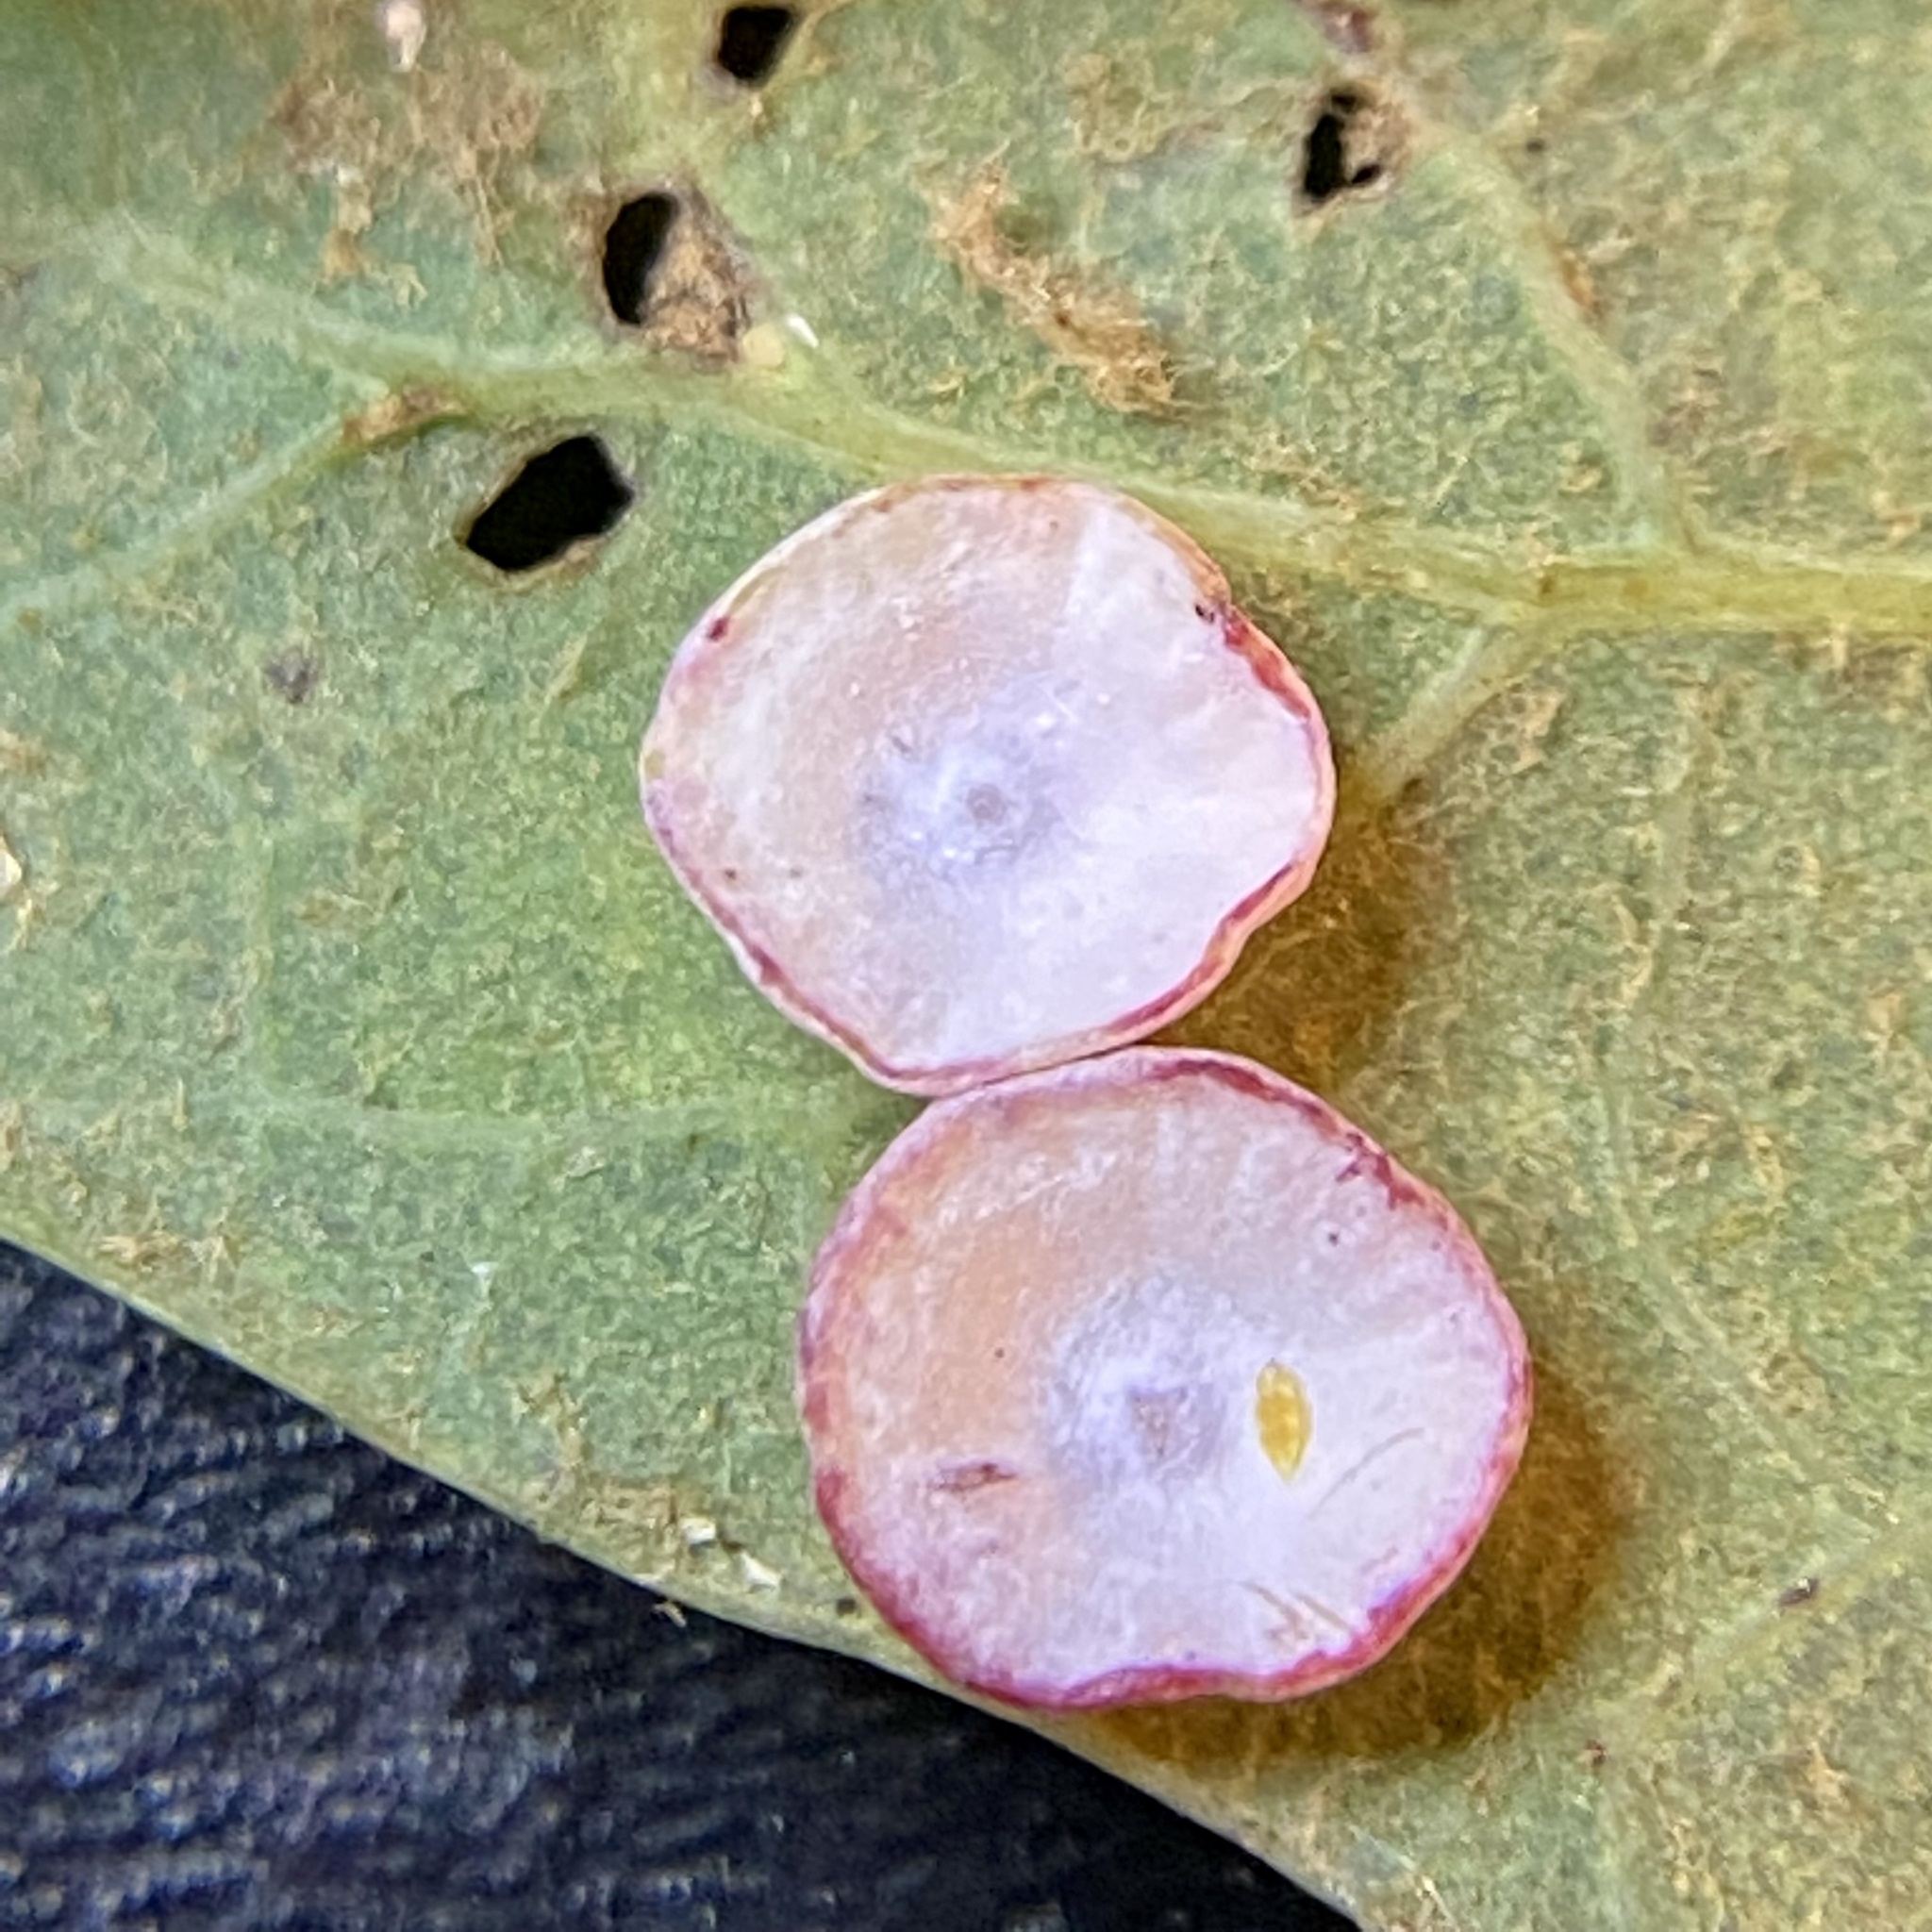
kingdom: Animalia
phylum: Arthropoda
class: Insecta
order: Hymenoptera
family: Cynipidae
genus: Phylloteras
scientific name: Phylloteras poculum
